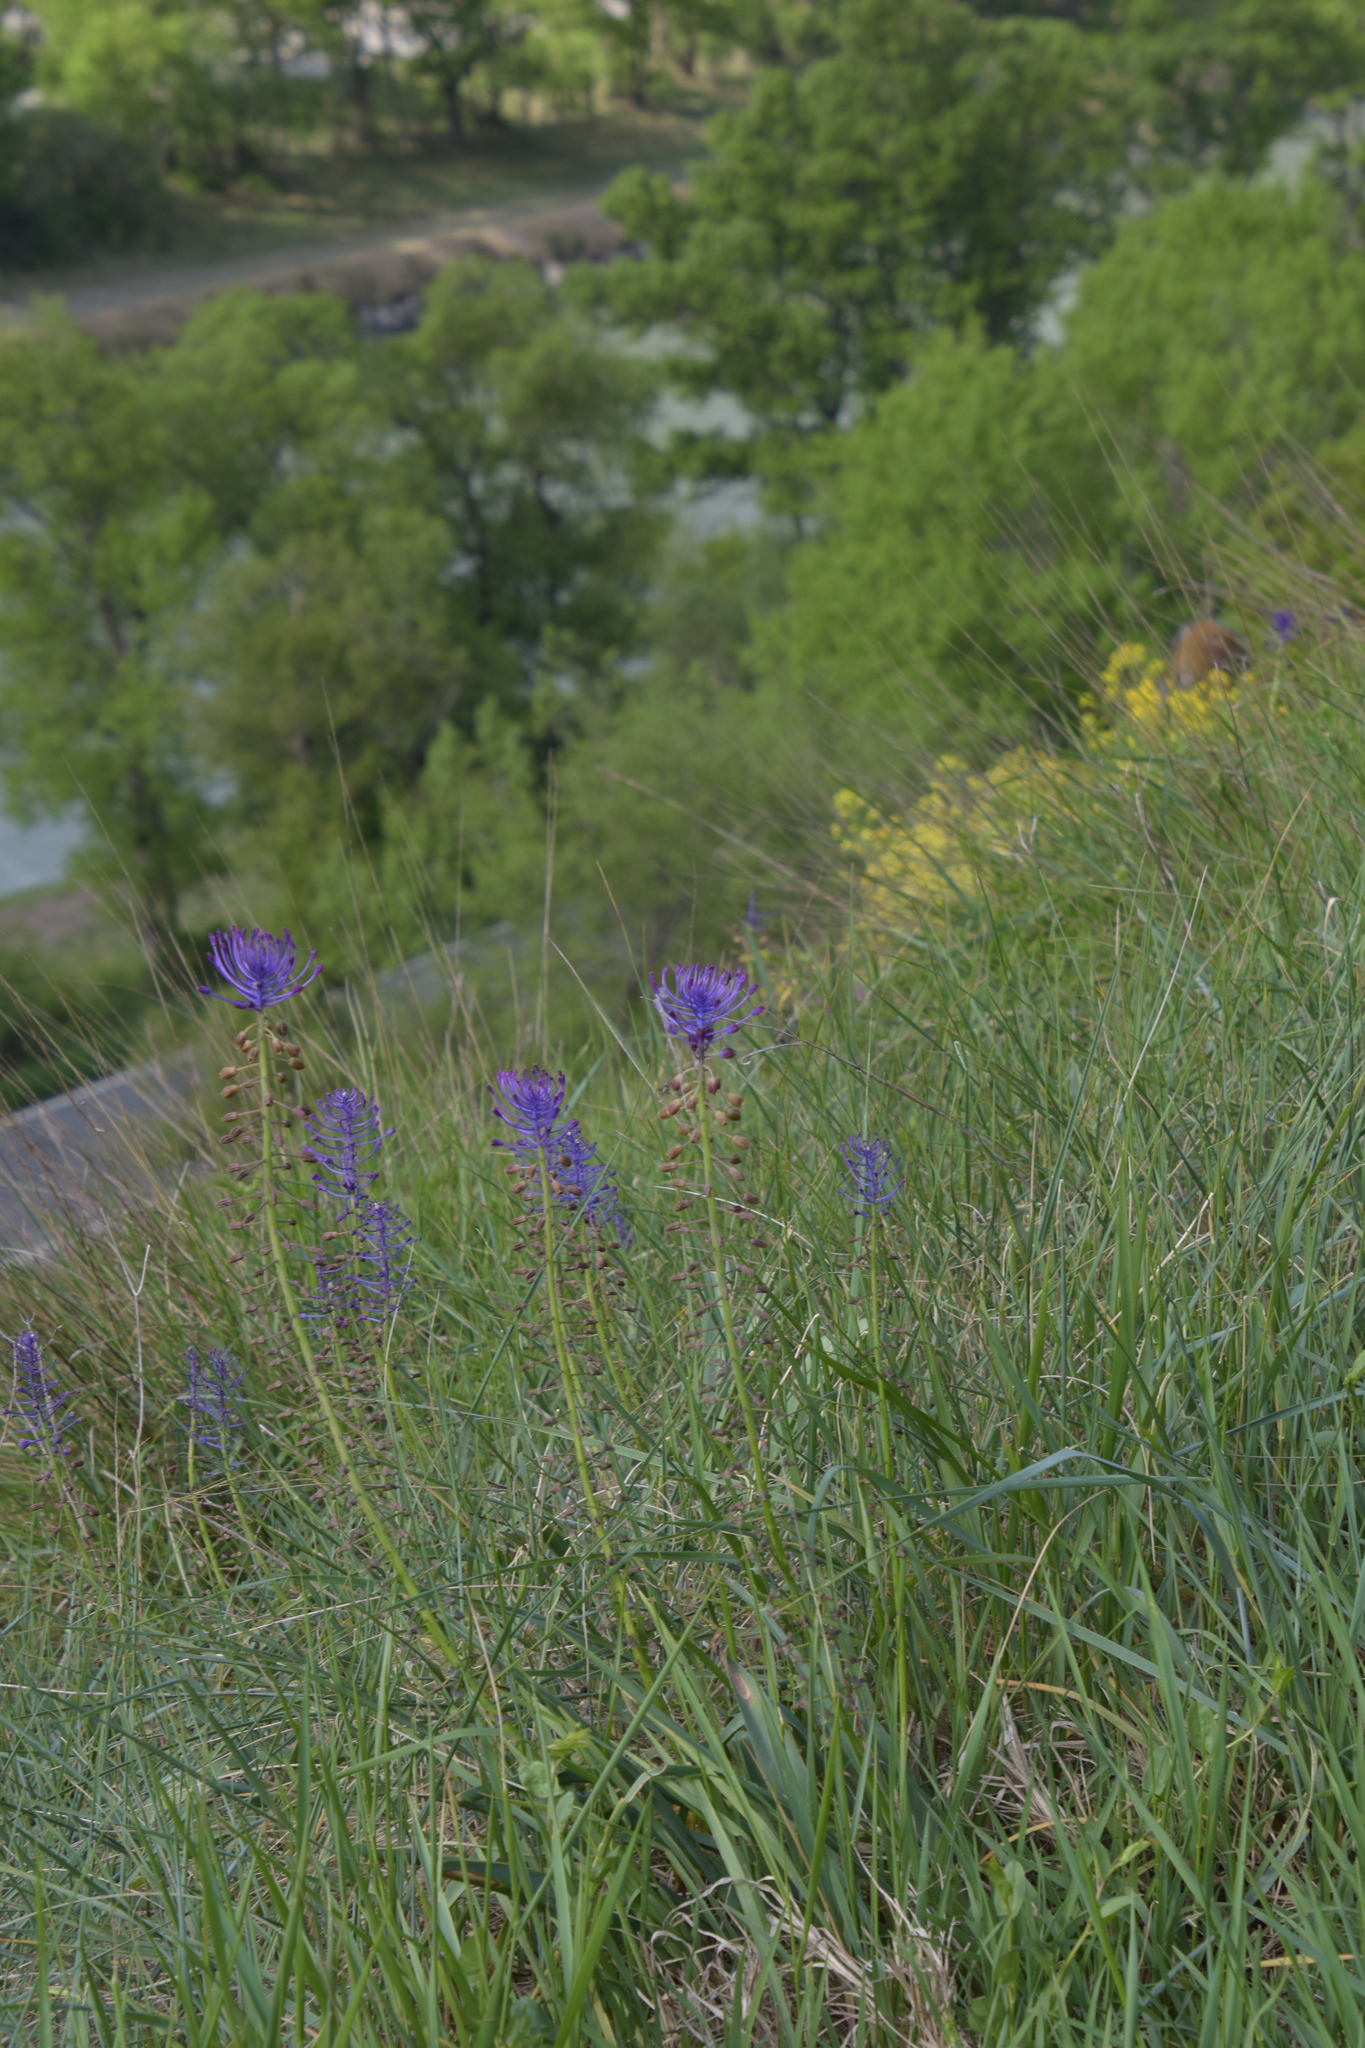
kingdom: Plantae
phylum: Tracheophyta
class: Liliopsida
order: Asparagales
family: Asparagaceae
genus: Muscari
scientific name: Muscari comosum
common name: Tassel hyacinth
